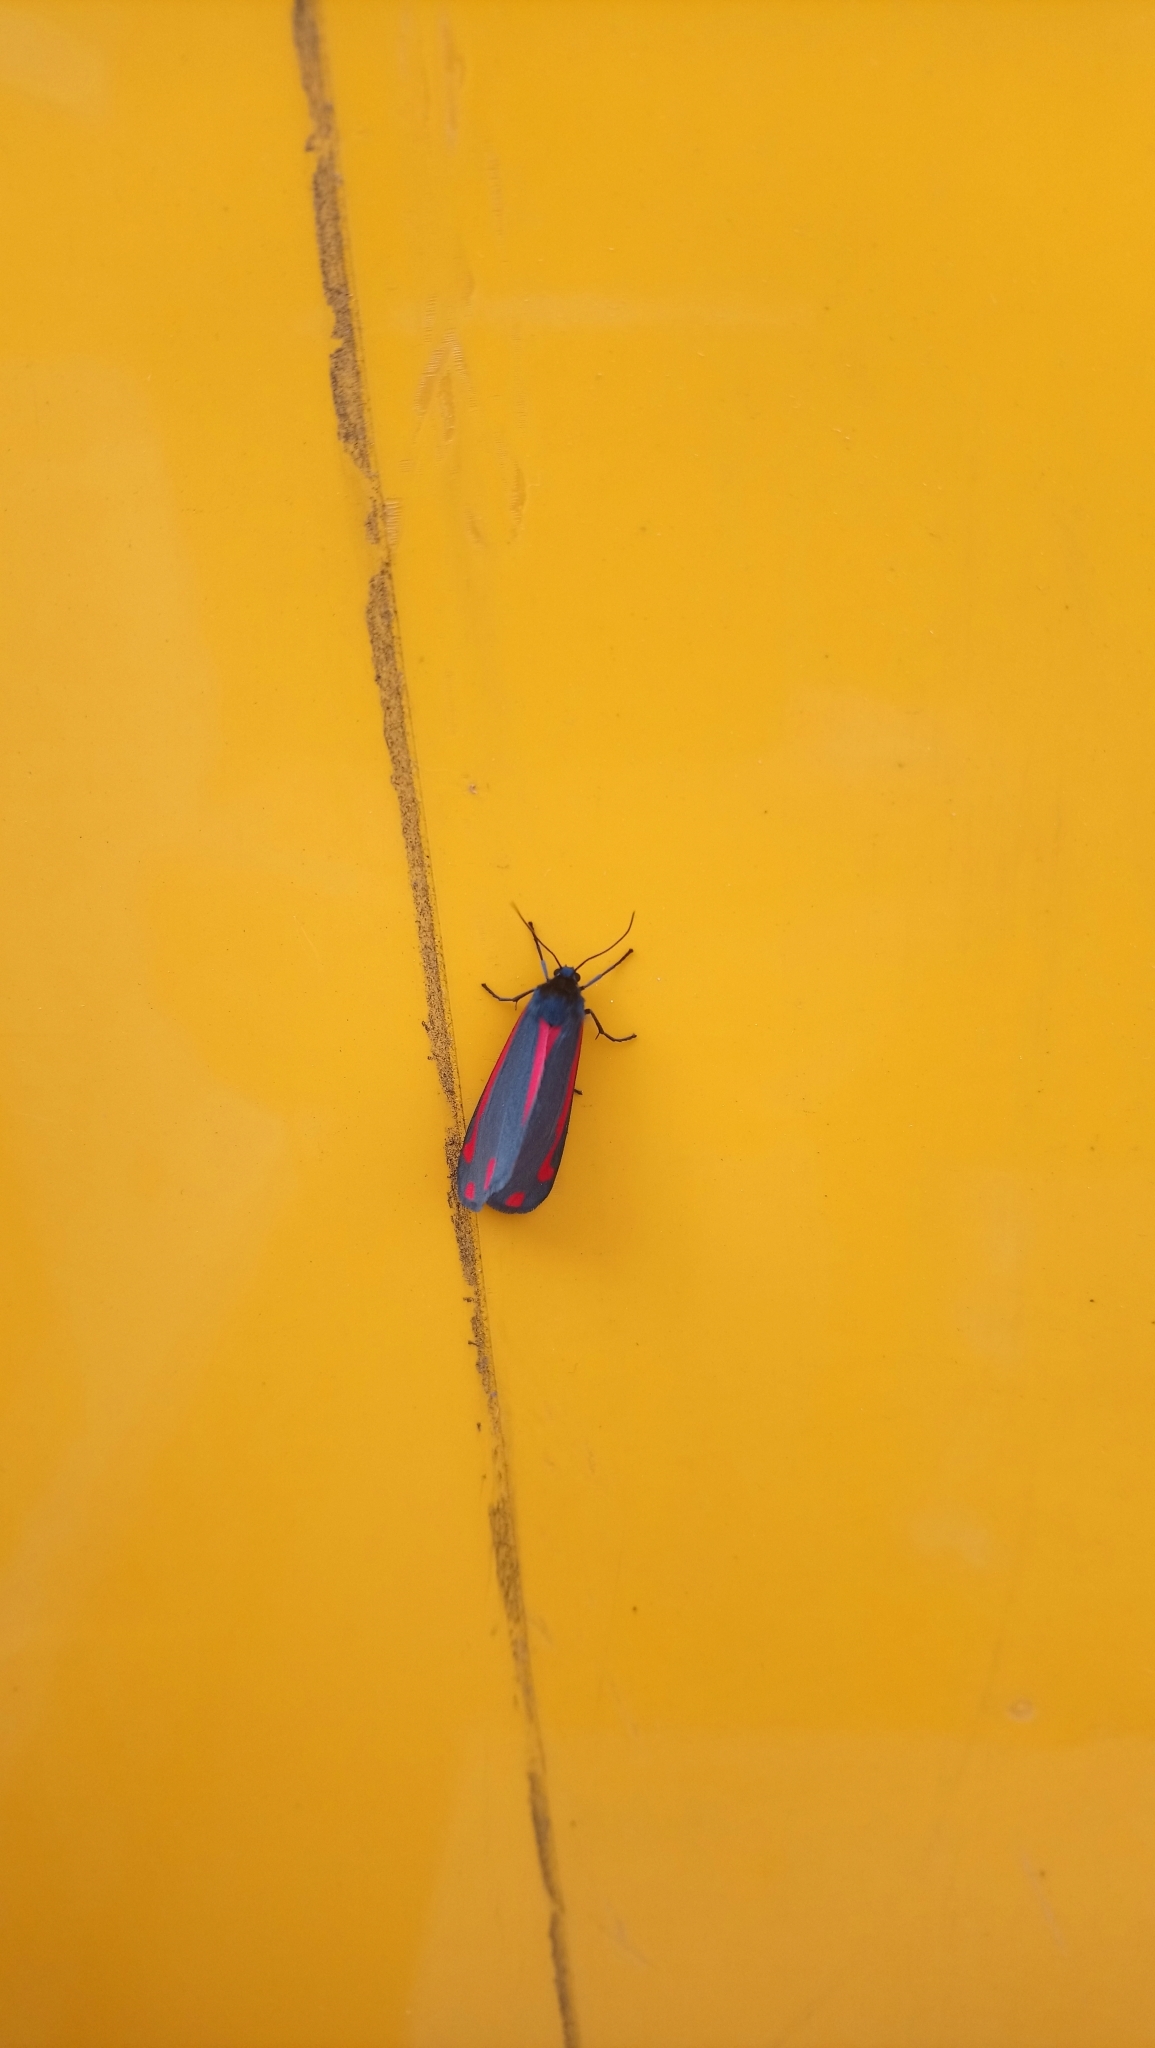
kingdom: Animalia
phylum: Arthropoda
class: Insecta
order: Lepidoptera
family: Erebidae
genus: Tyria
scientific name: Tyria jacobaeae
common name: Cinnabar
